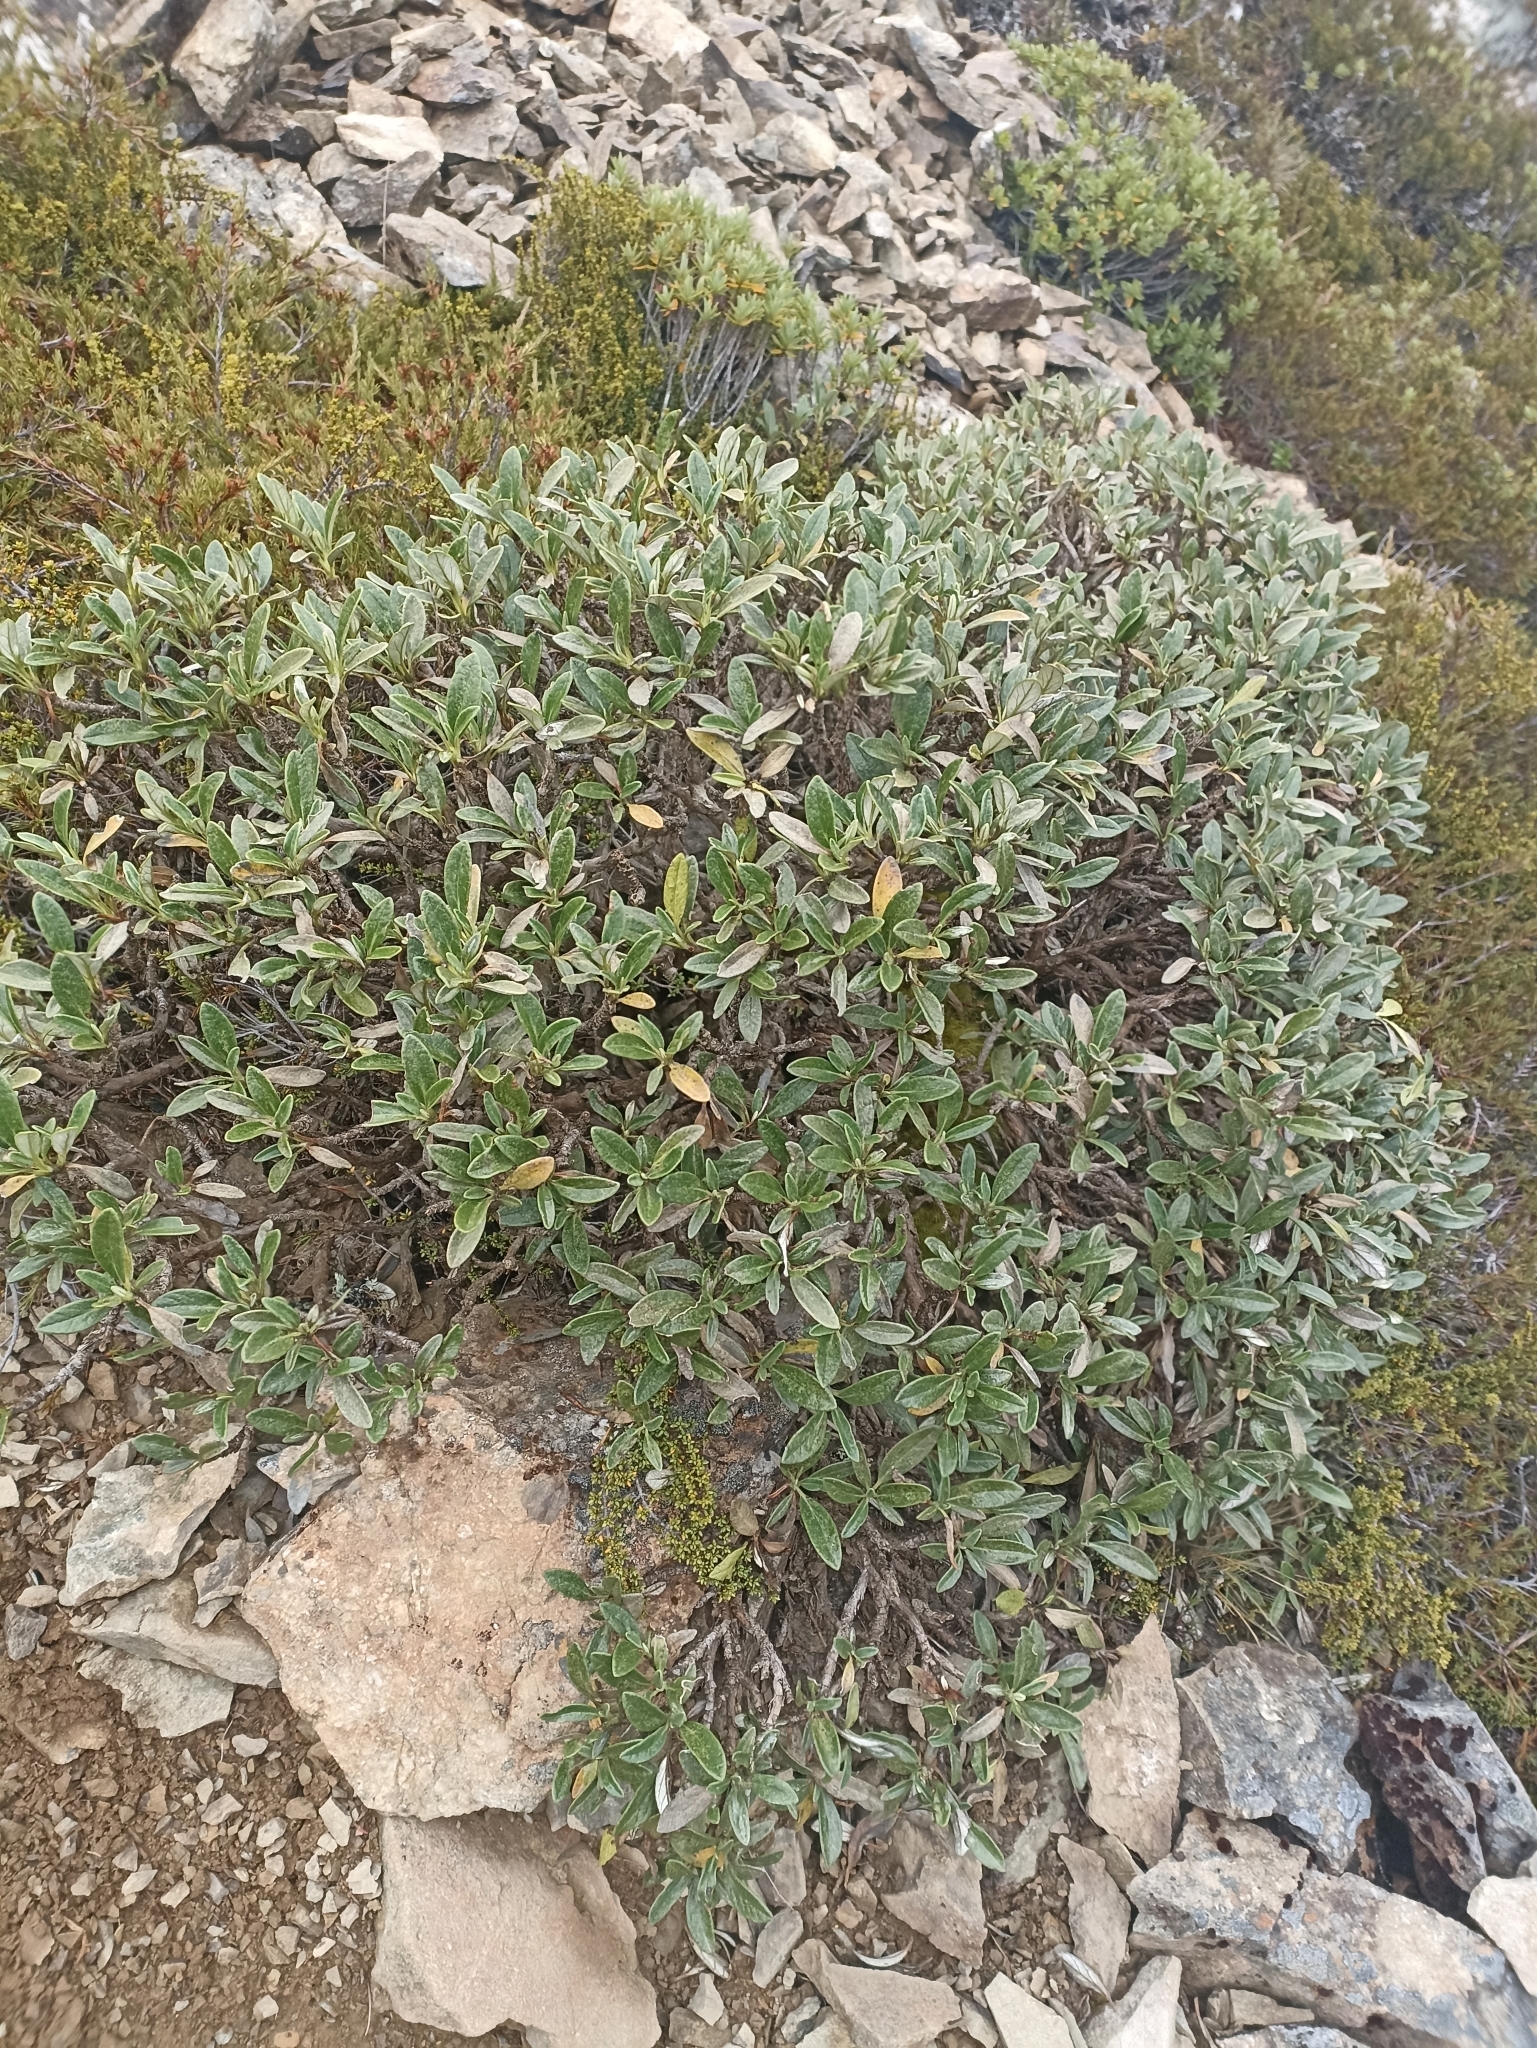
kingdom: Plantae
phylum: Tracheophyta
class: Magnoliopsida
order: Asterales
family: Asteraceae
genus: Brachyglottis
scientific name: Brachyglottis adamsii
